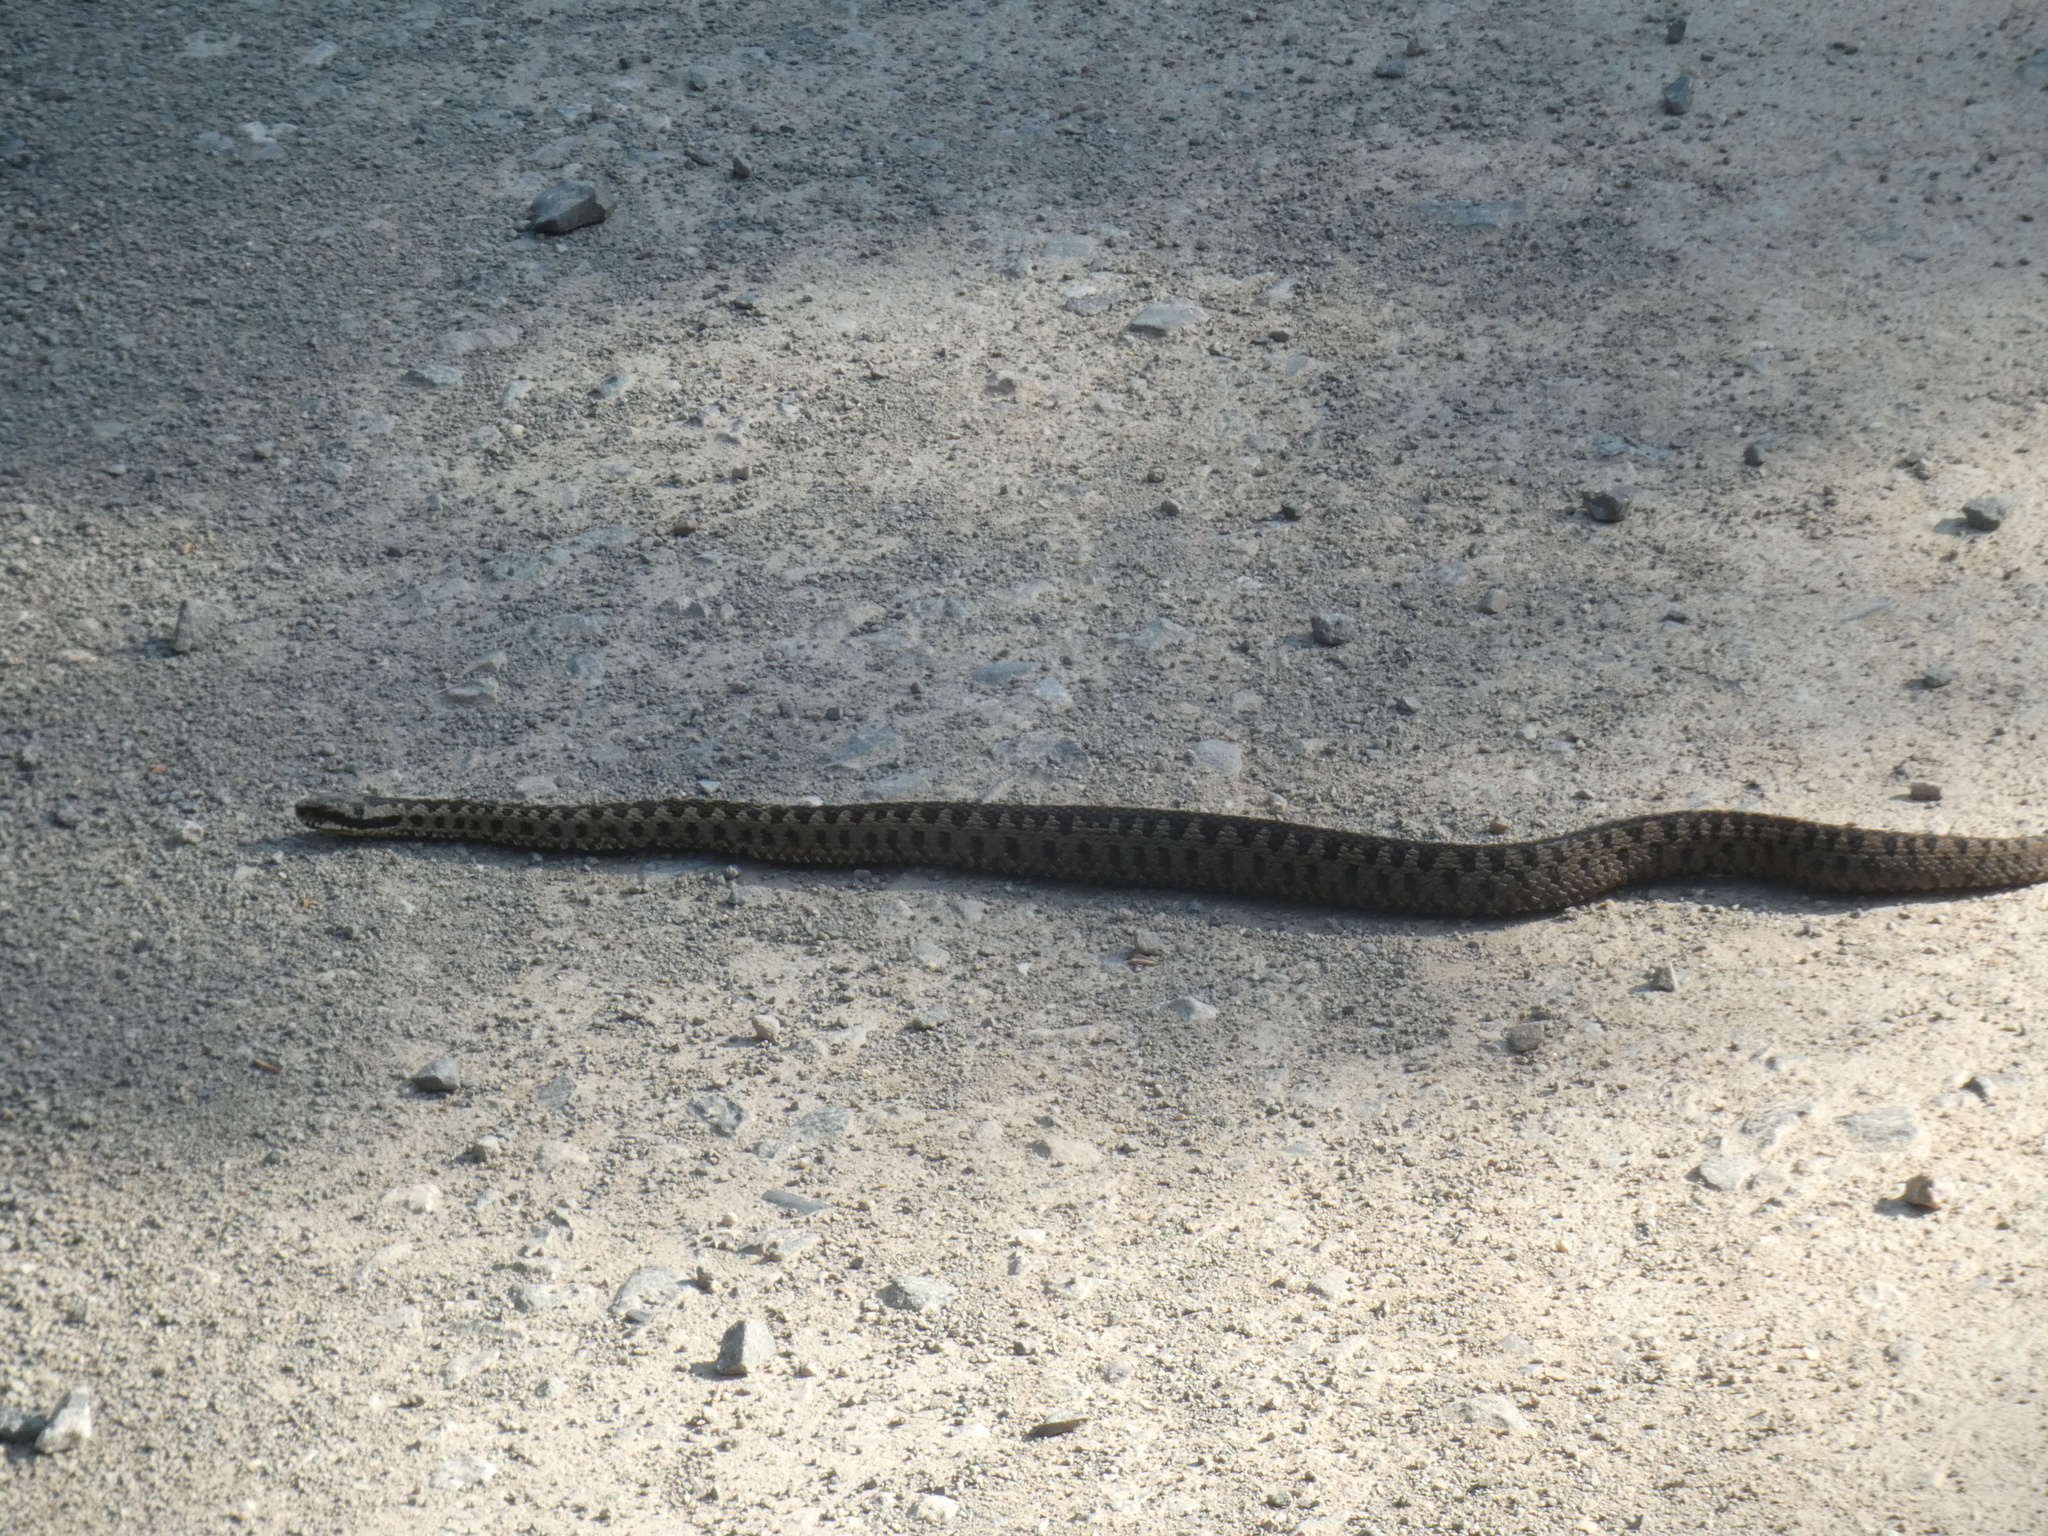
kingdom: Animalia
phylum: Chordata
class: Squamata
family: Viperidae
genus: Vipera
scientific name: Vipera berus
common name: Adder
